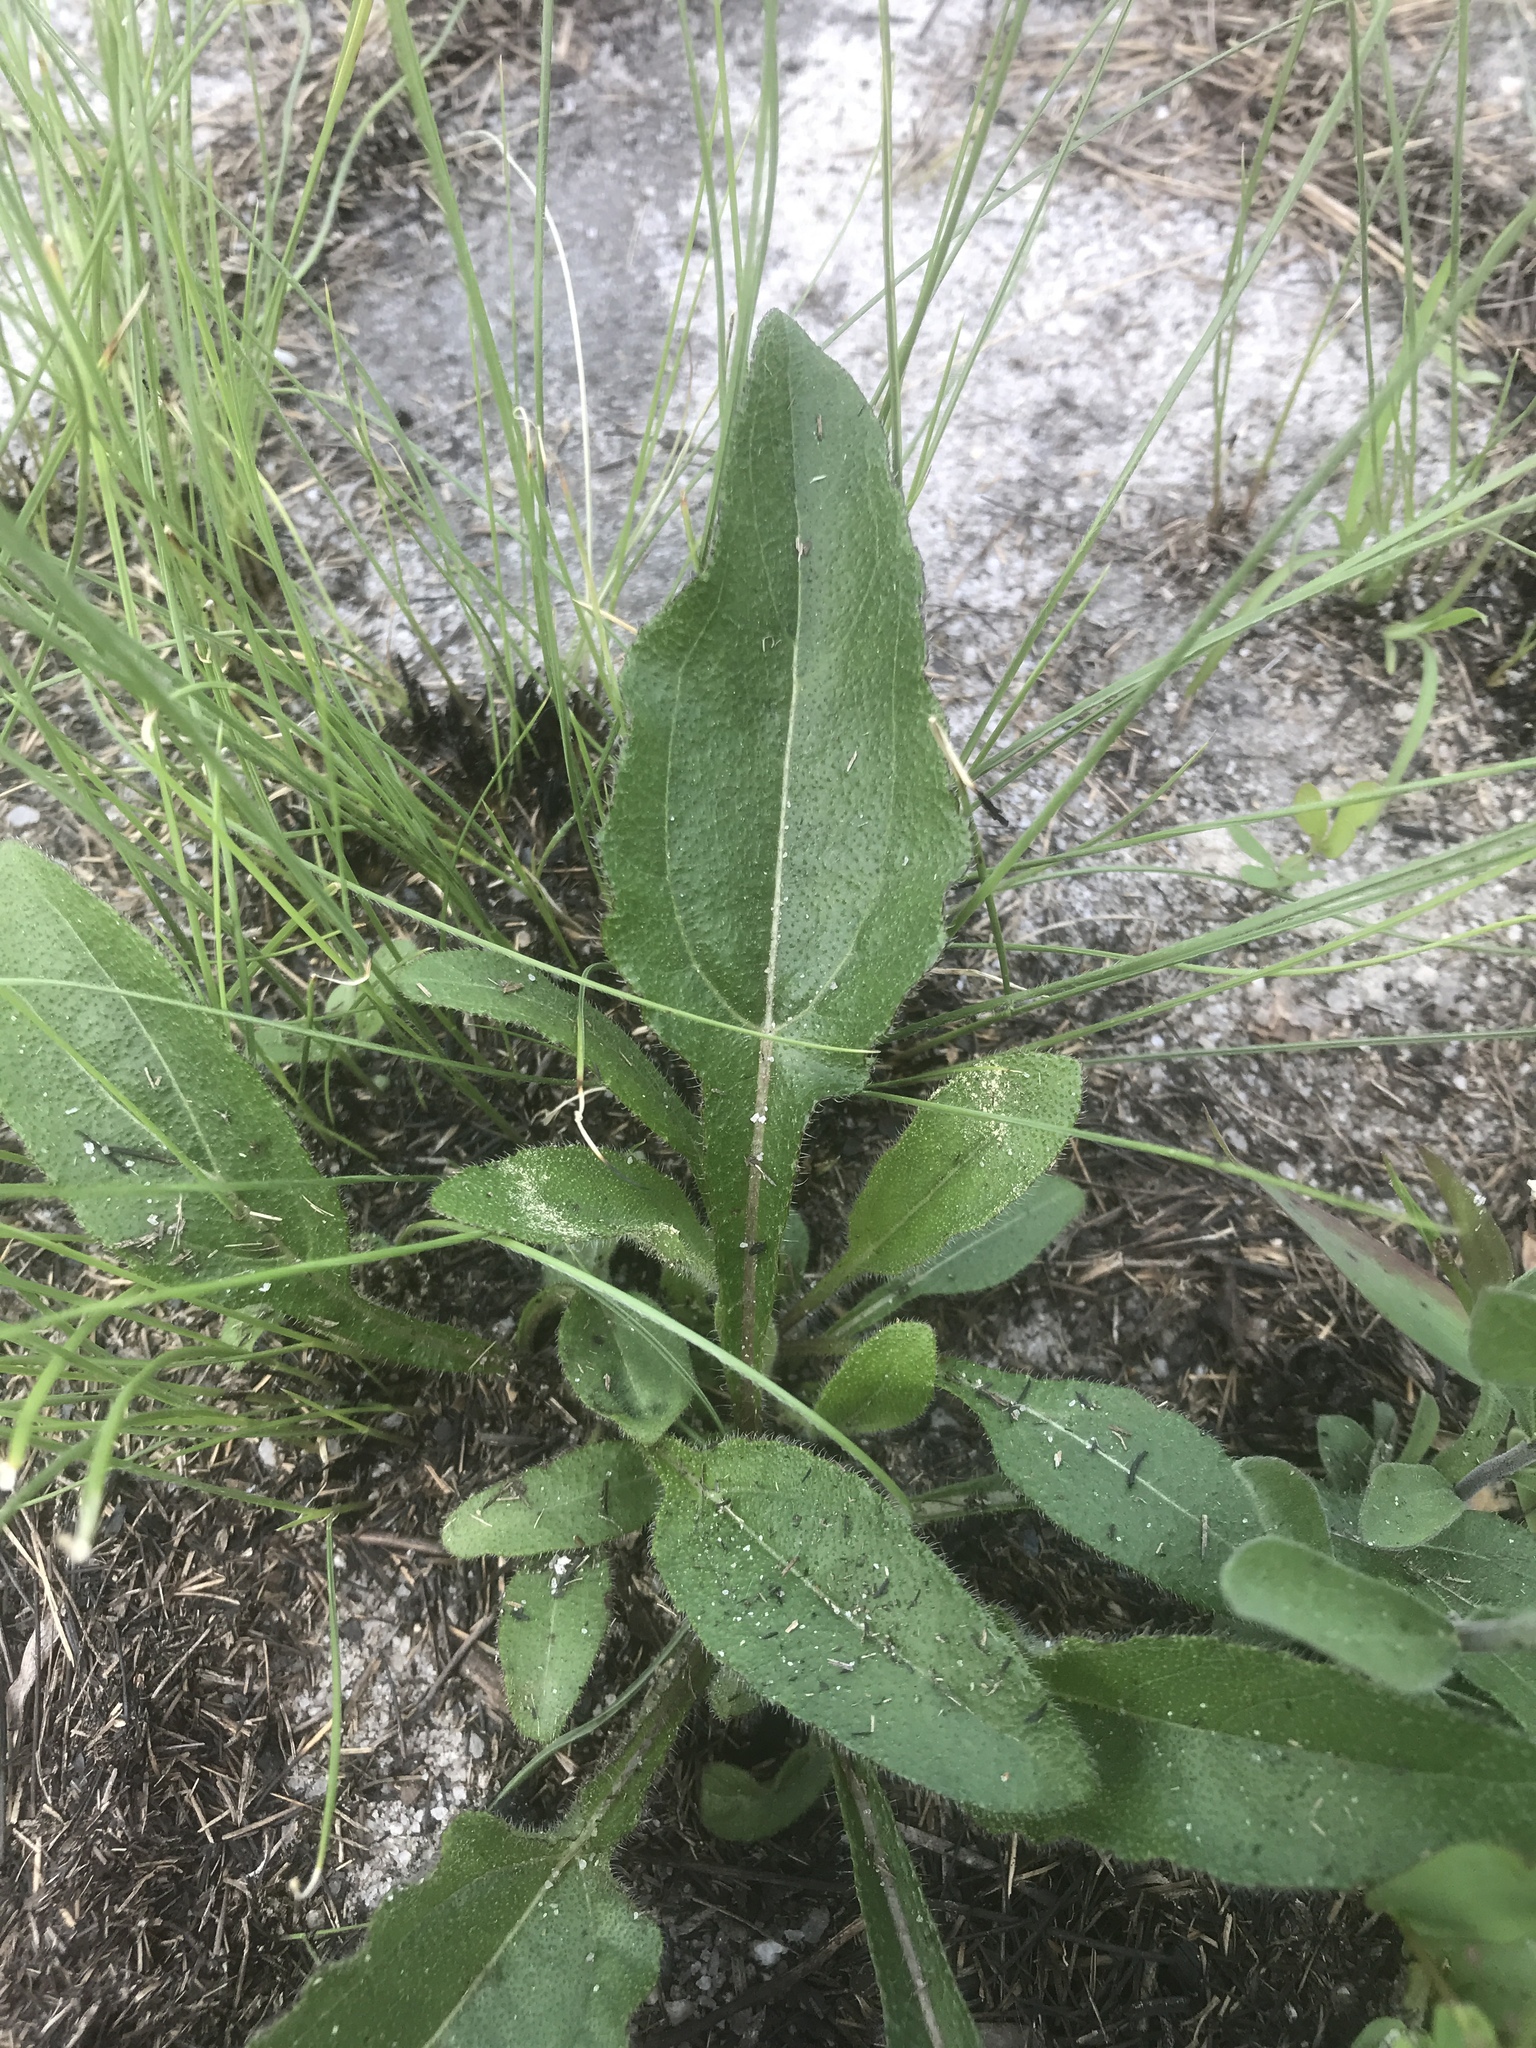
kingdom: Plantae
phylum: Tracheophyta
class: Magnoliopsida
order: Asterales
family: Asteraceae
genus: Helianthus
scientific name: Helianthus atrorubens
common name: Dark-eyed sunflower
